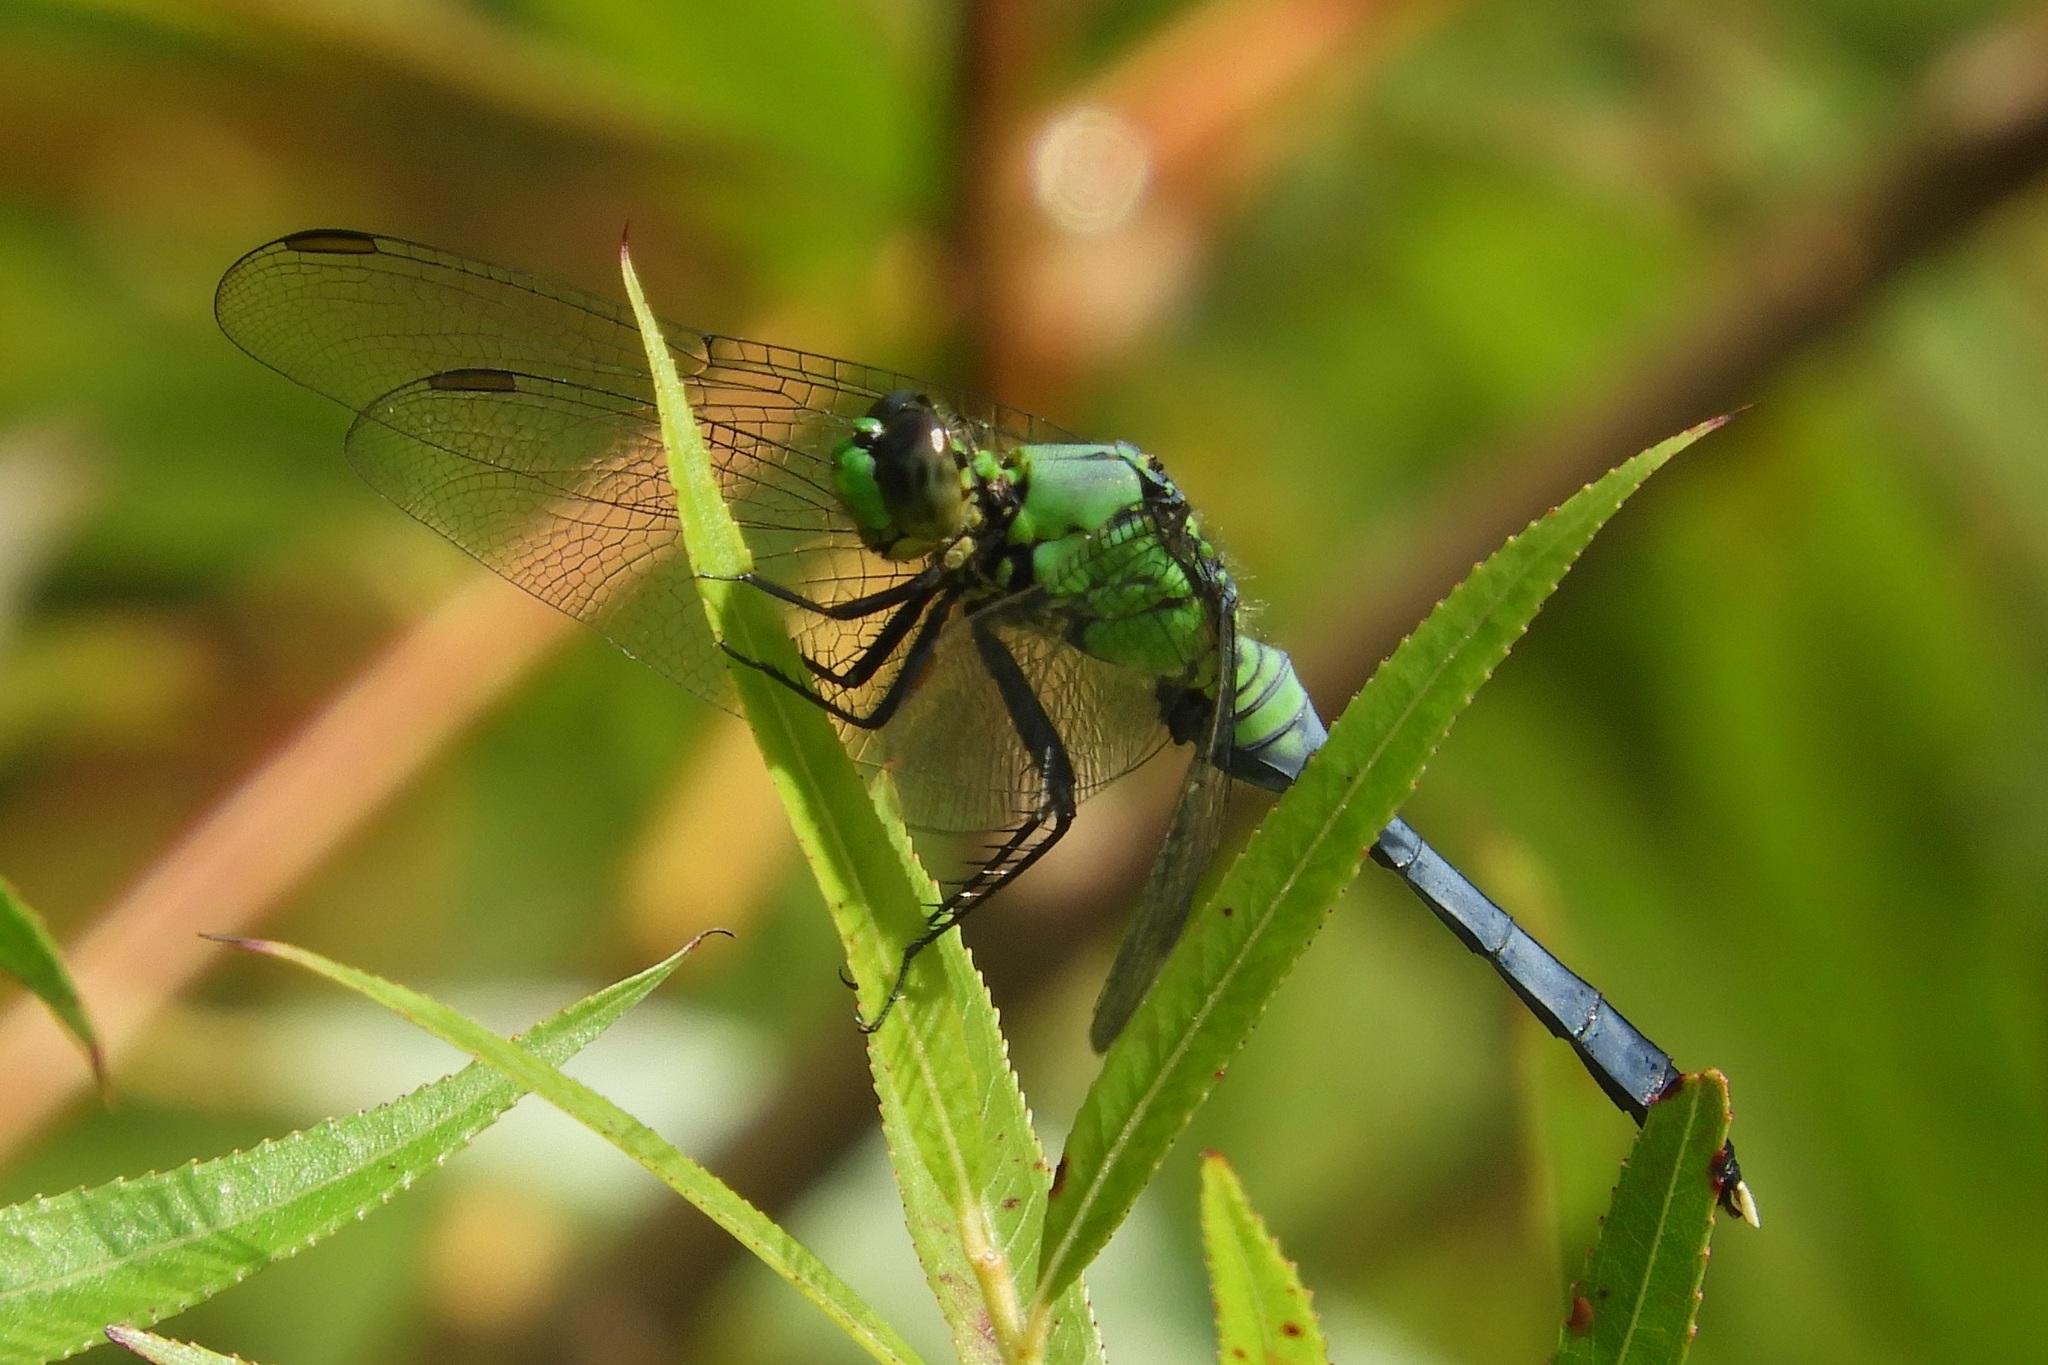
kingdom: Animalia
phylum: Arthropoda
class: Insecta
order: Odonata
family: Libellulidae
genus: Erythemis
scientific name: Erythemis simplicicollis
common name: Eastern pondhawk
